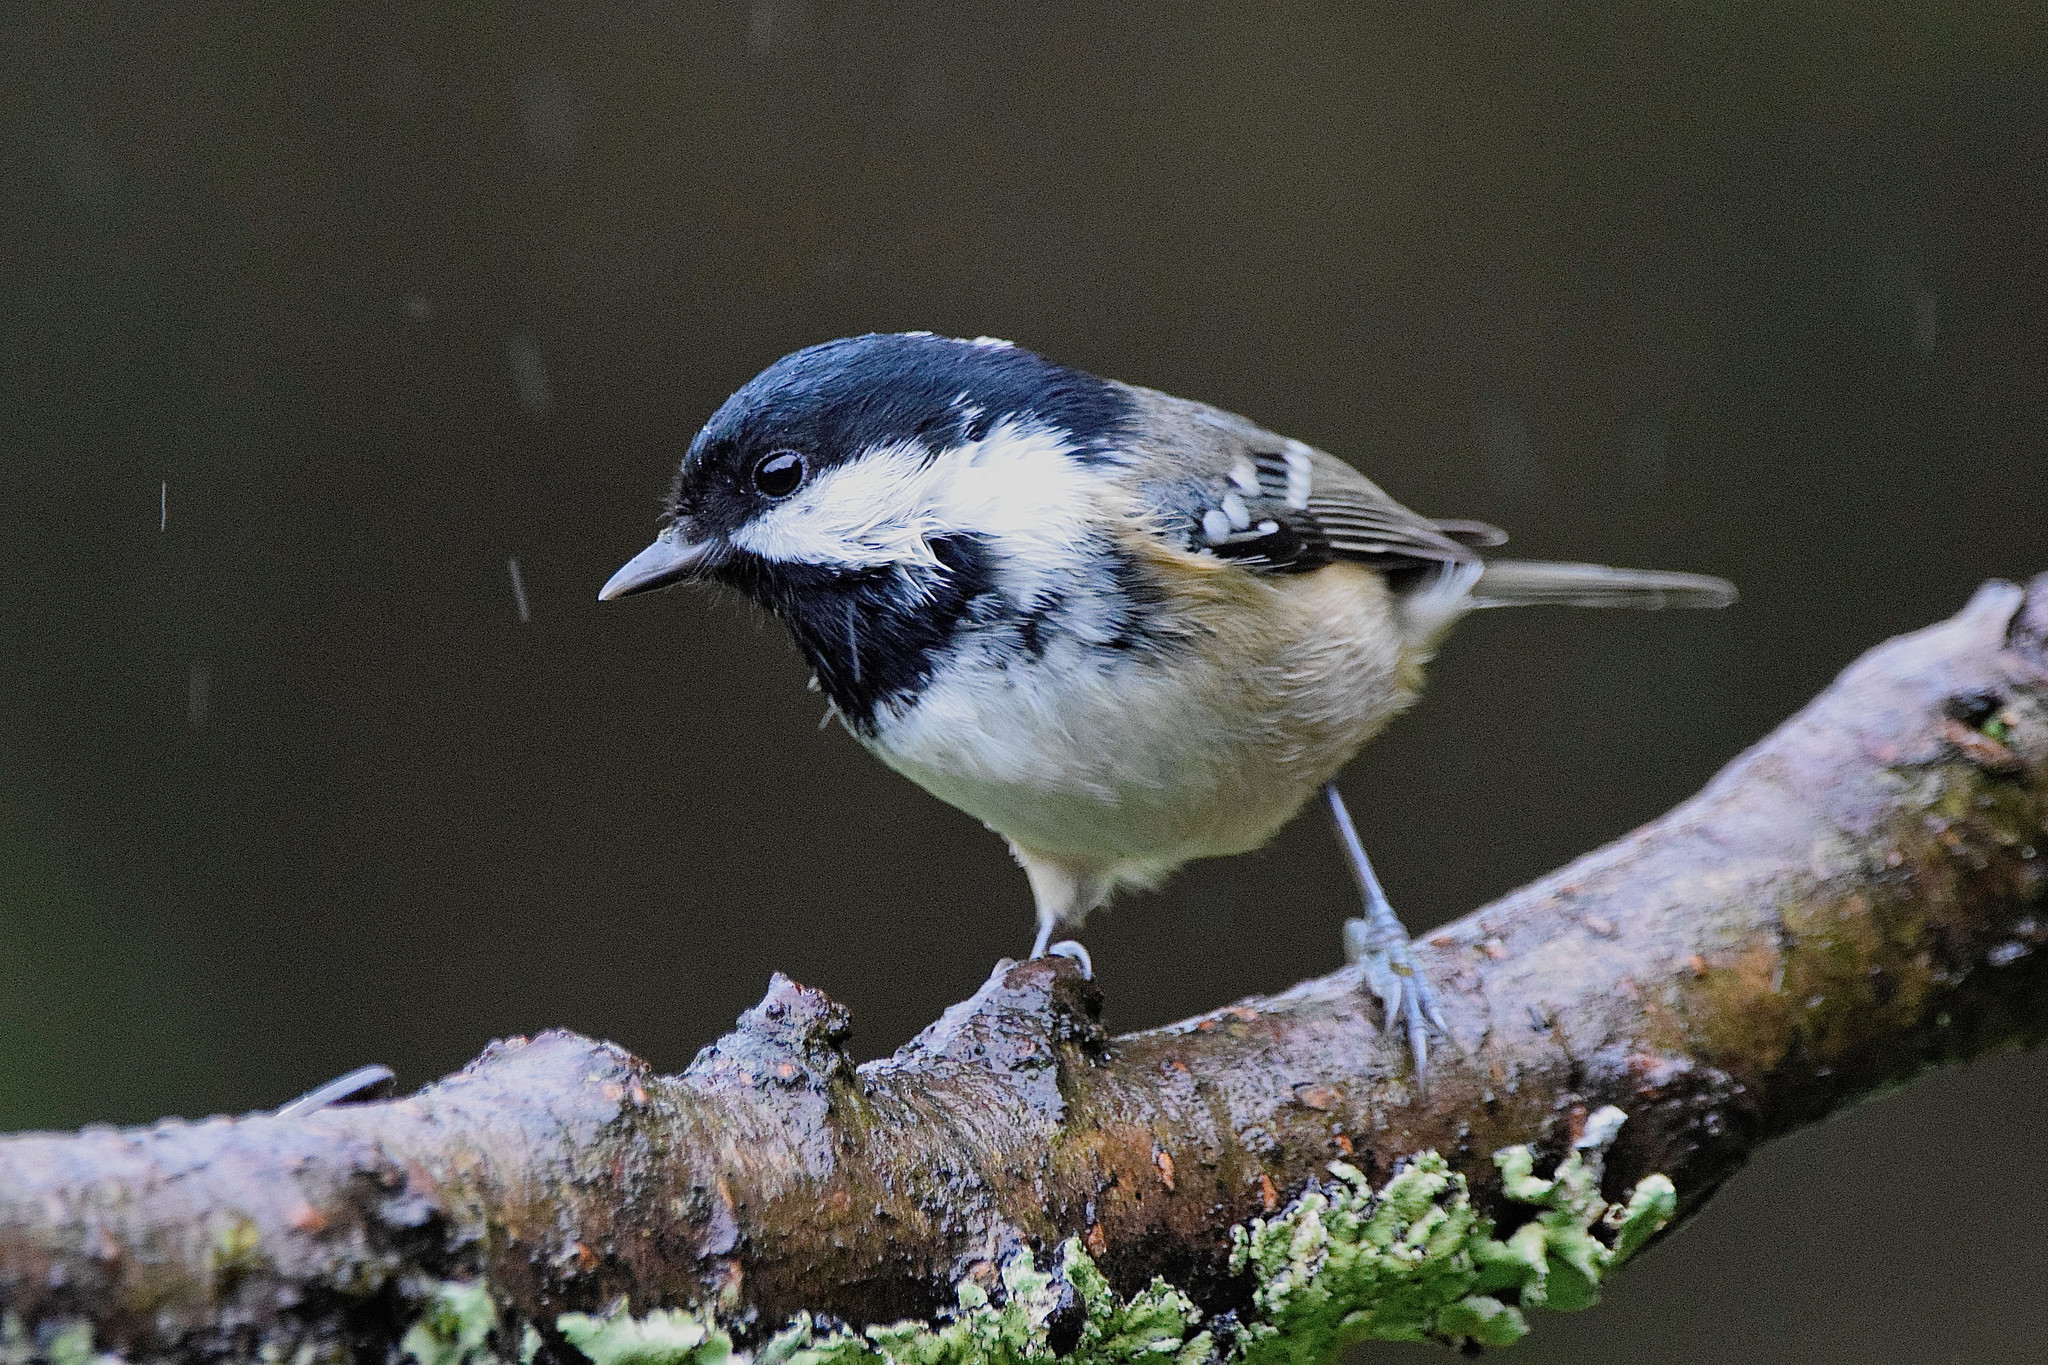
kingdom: Animalia
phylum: Chordata
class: Aves
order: Passeriformes
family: Paridae
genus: Periparus
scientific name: Periparus ater
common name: Coal tit
